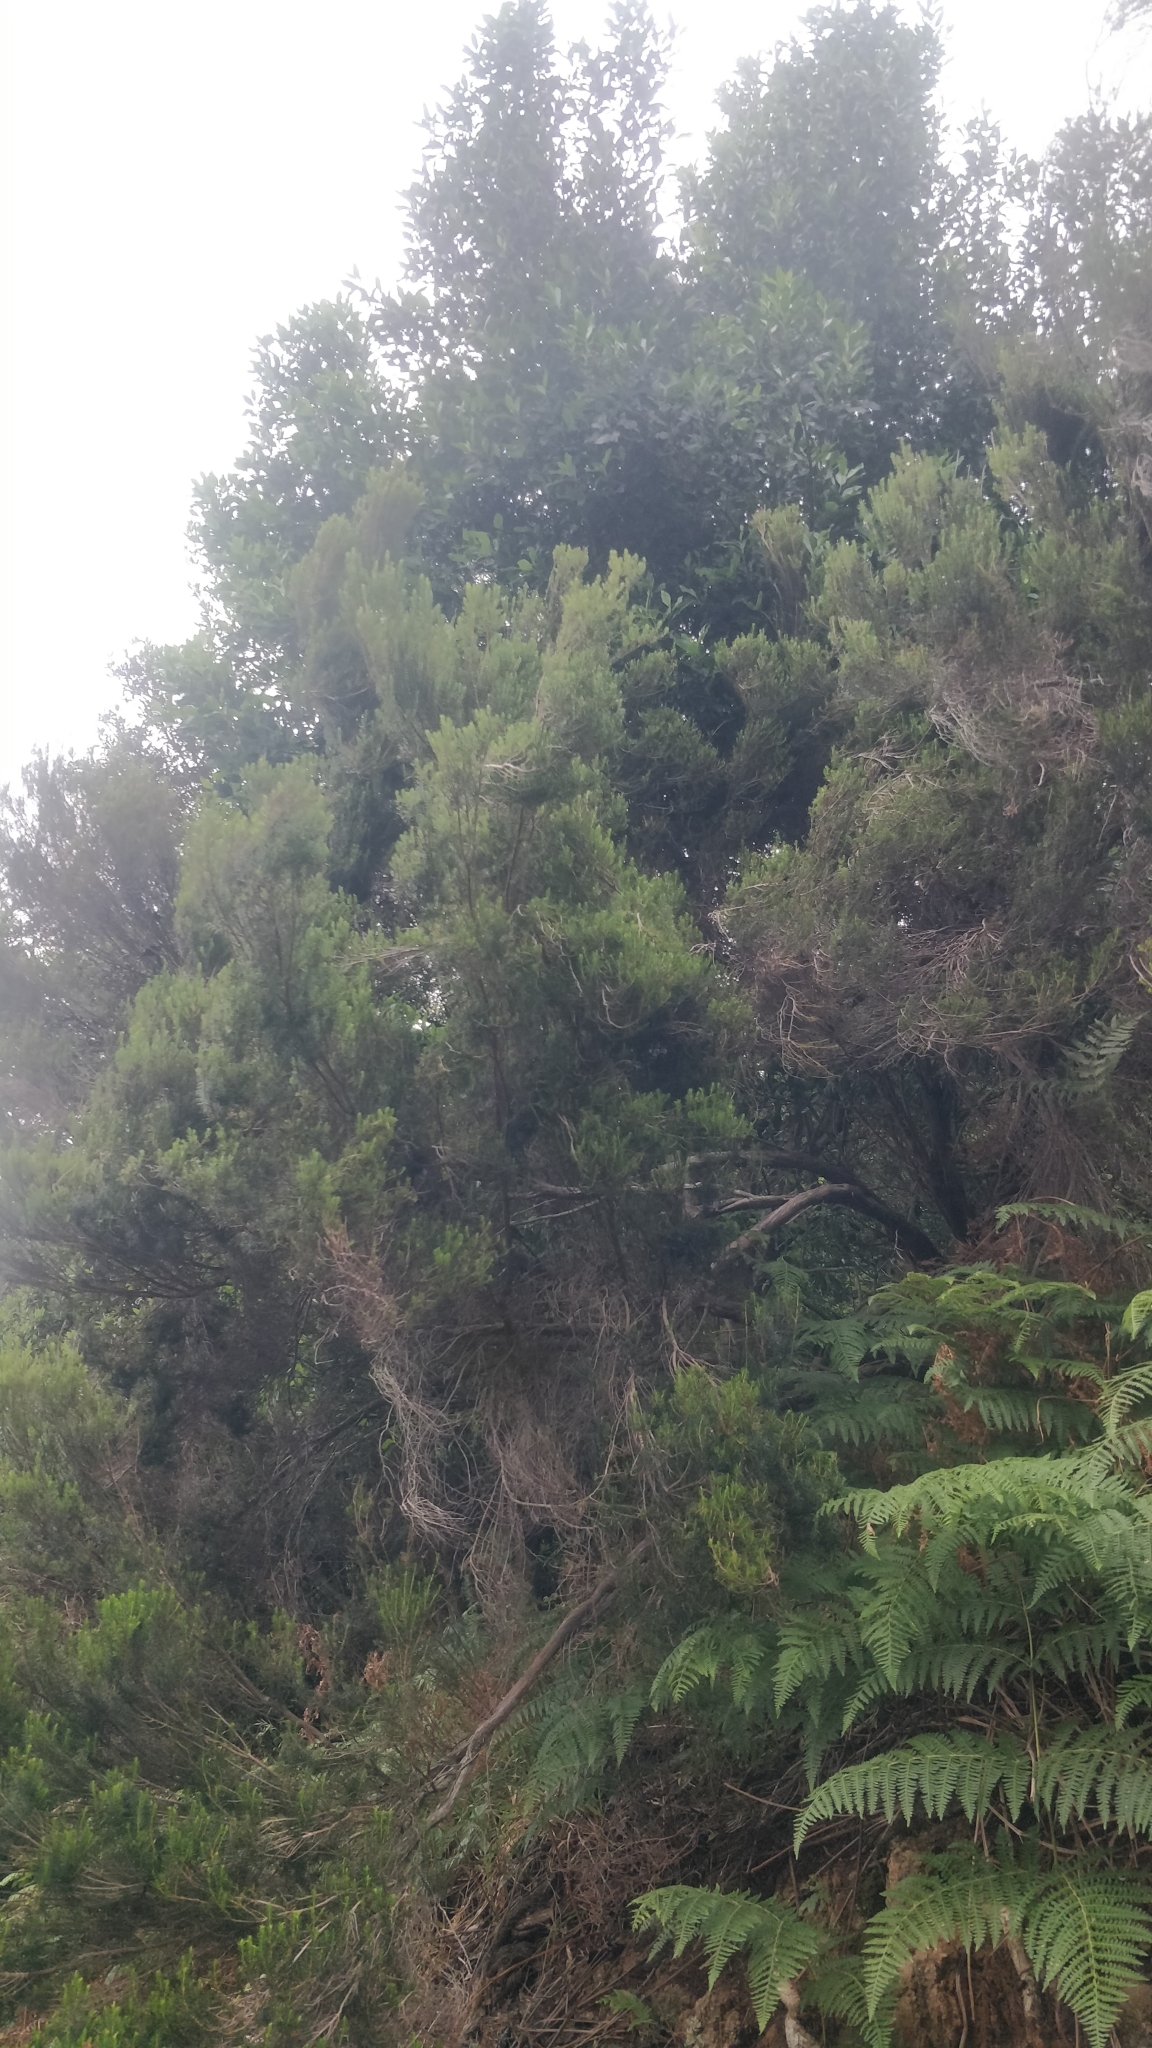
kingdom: Plantae
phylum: Tracheophyta
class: Magnoliopsida
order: Ericales
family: Ericaceae
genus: Erica
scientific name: Erica platycodon
